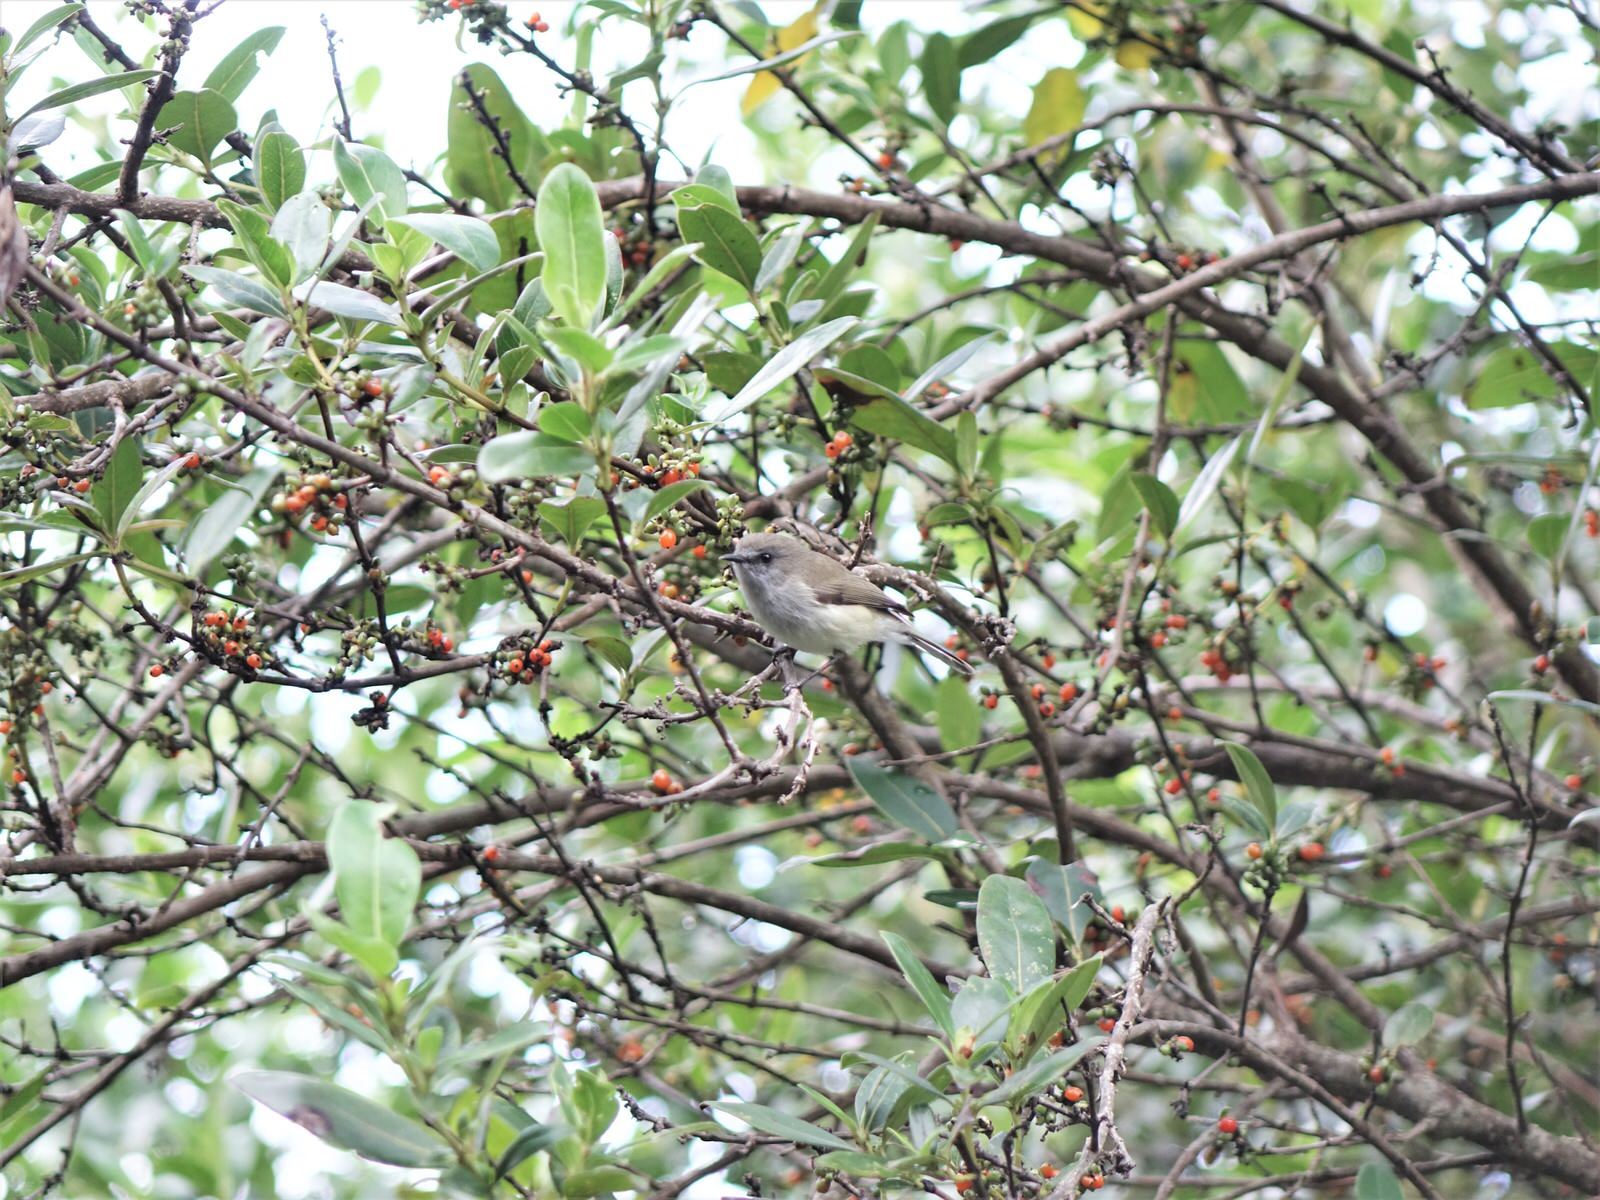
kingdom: Animalia
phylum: Chordata
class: Aves
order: Passeriformes
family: Acanthizidae
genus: Gerygone
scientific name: Gerygone igata
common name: Grey gerygone
